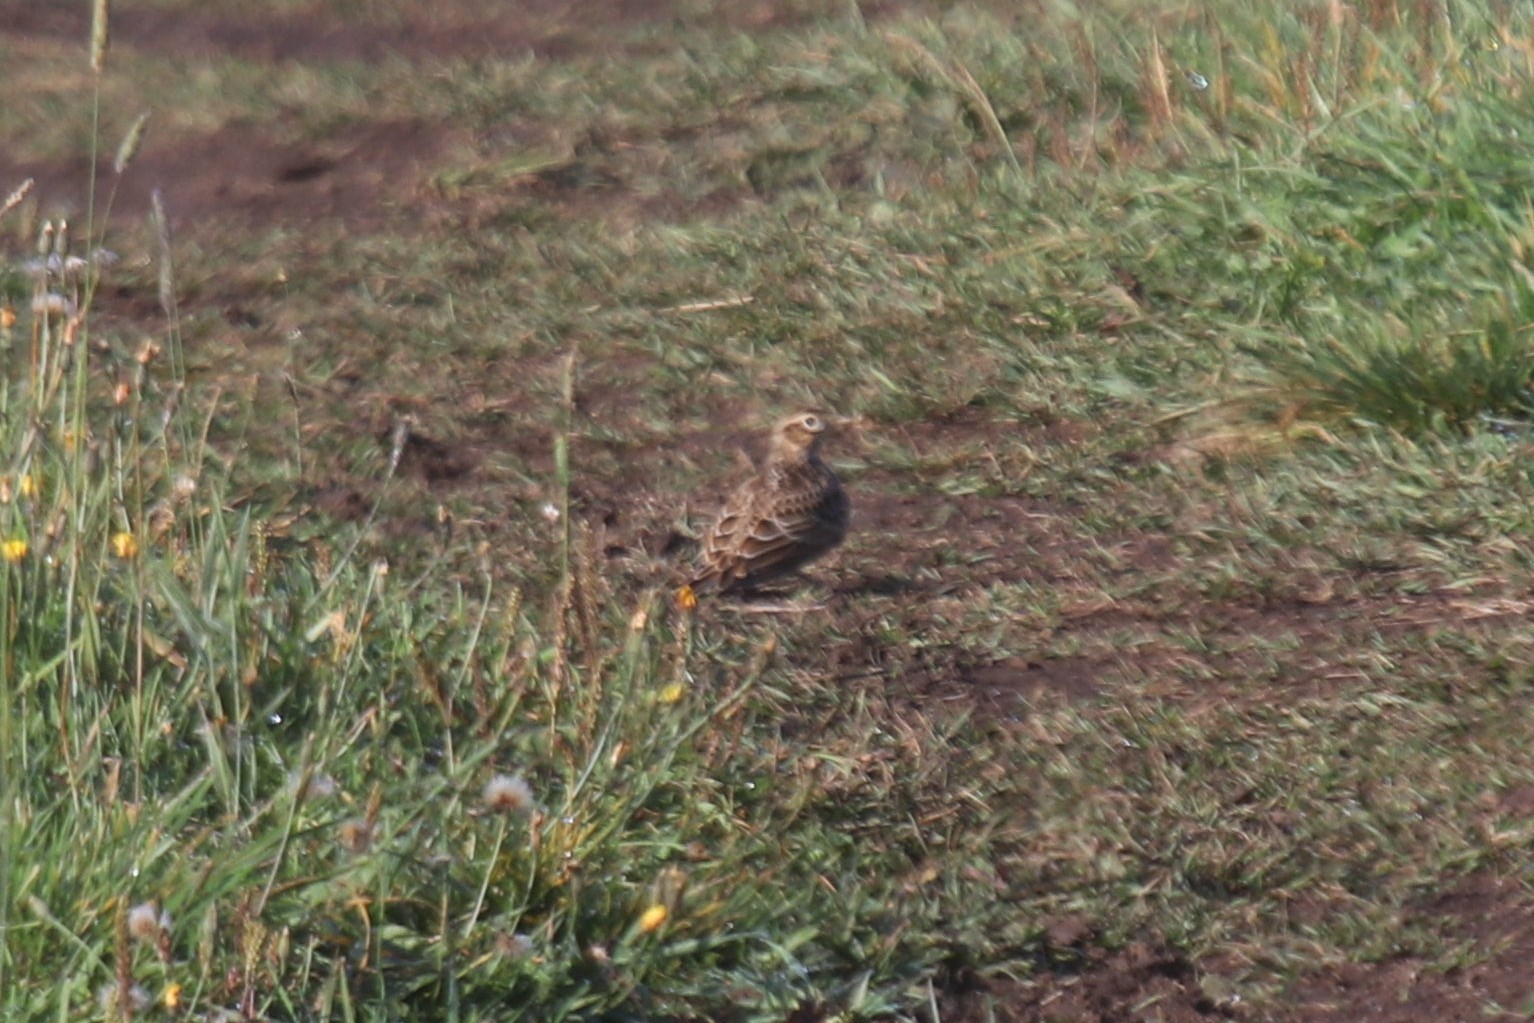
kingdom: Animalia
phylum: Chordata
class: Aves
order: Passeriformes
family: Alaudidae
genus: Alauda
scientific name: Alauda arvensis
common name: Eurasian skylark
